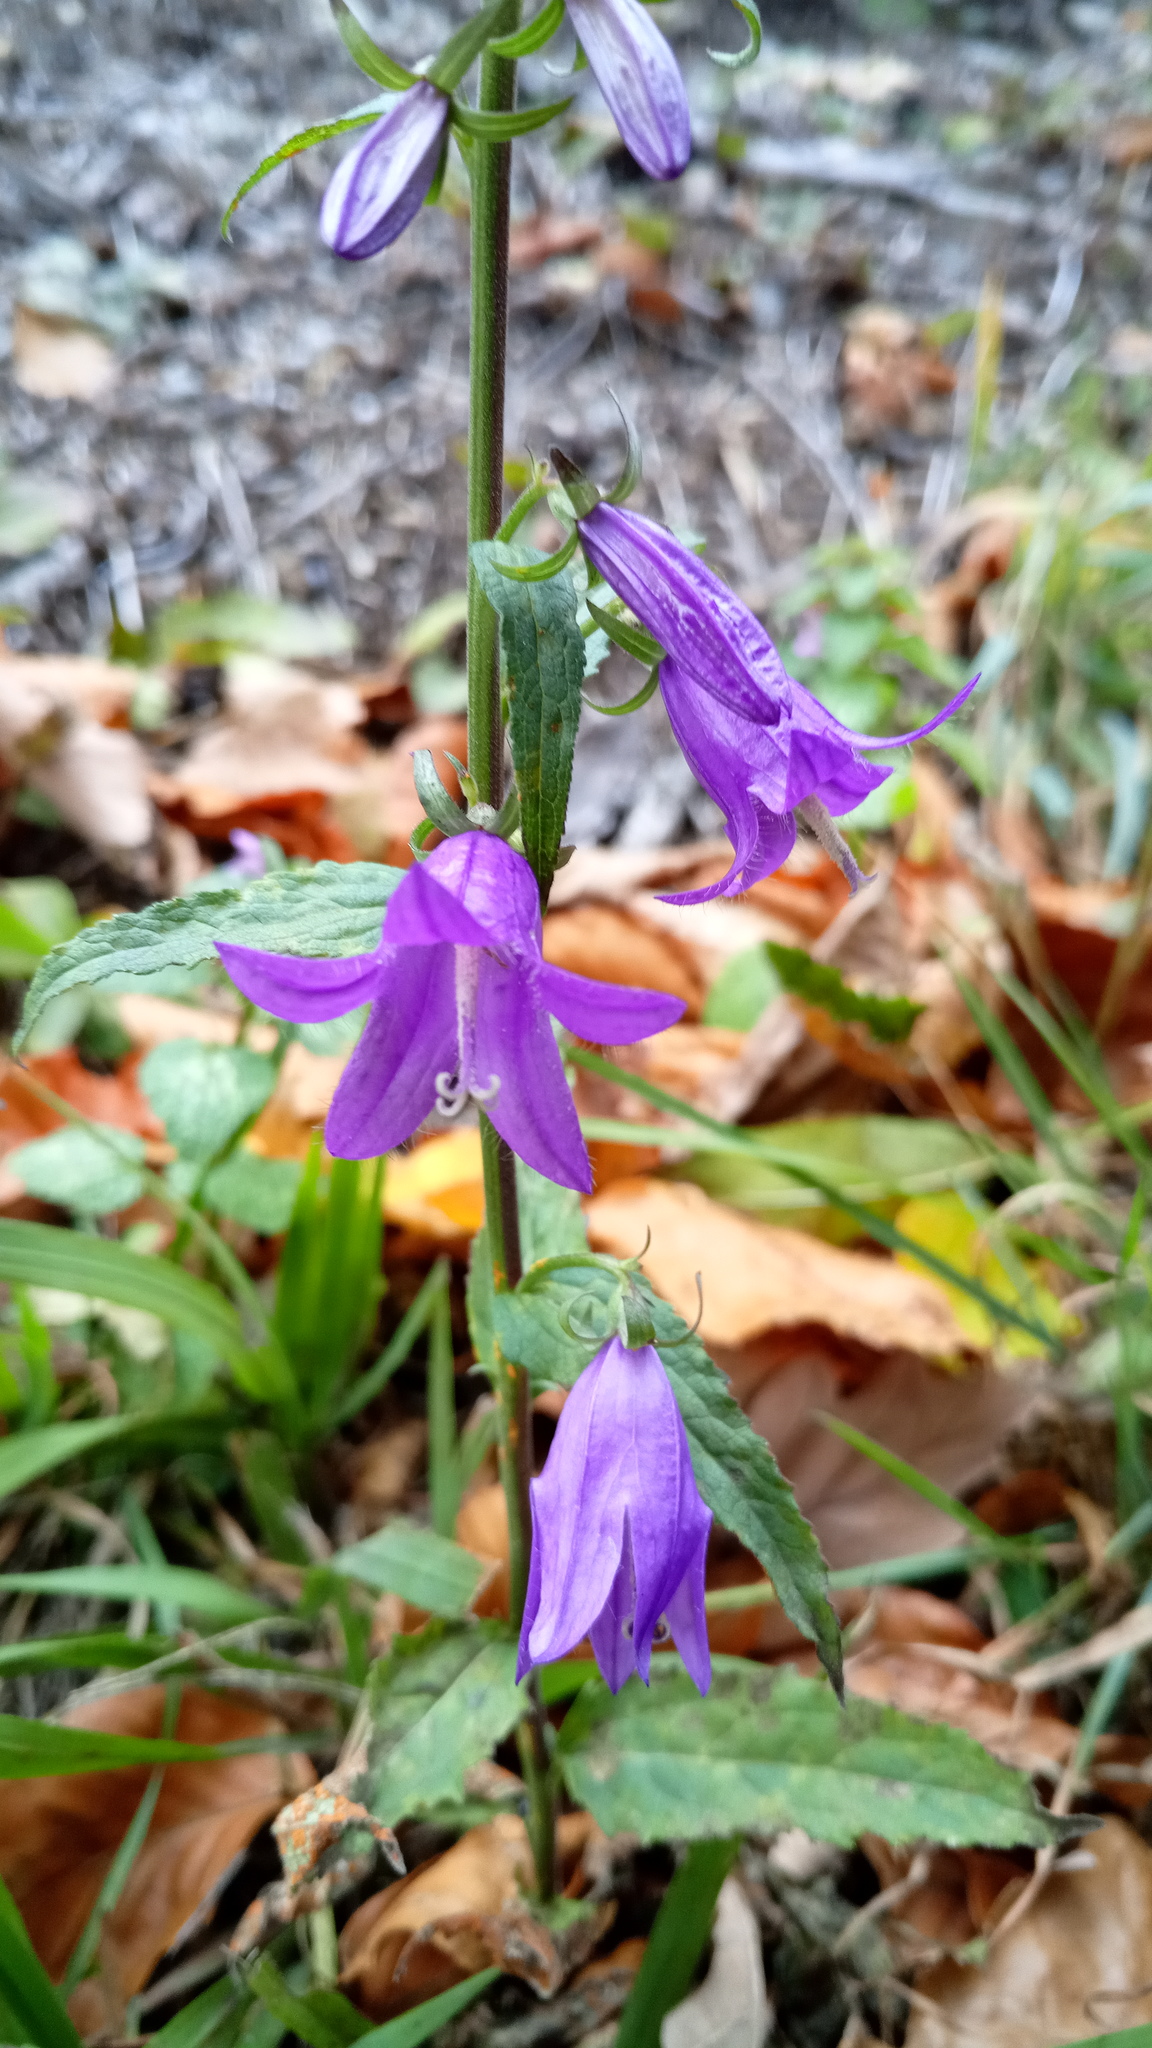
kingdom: Plantae
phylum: Tracheophyta
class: Magnoliopsida
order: Asterales
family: Campanulaceae
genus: Campanula
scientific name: Campanula rapunculoides
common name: Creeping bellflower
